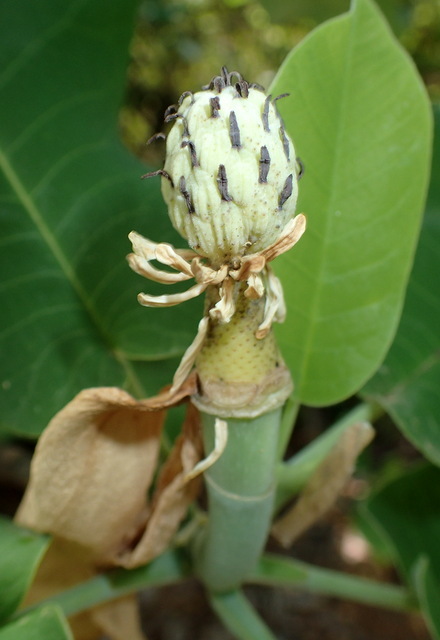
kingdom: Plantae
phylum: Tracheophyta
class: Magnoliopsida
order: Magnoliales
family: Magnoliaceae
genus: Magnolia
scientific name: Magnolia ashei
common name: Ashe's magnolia
